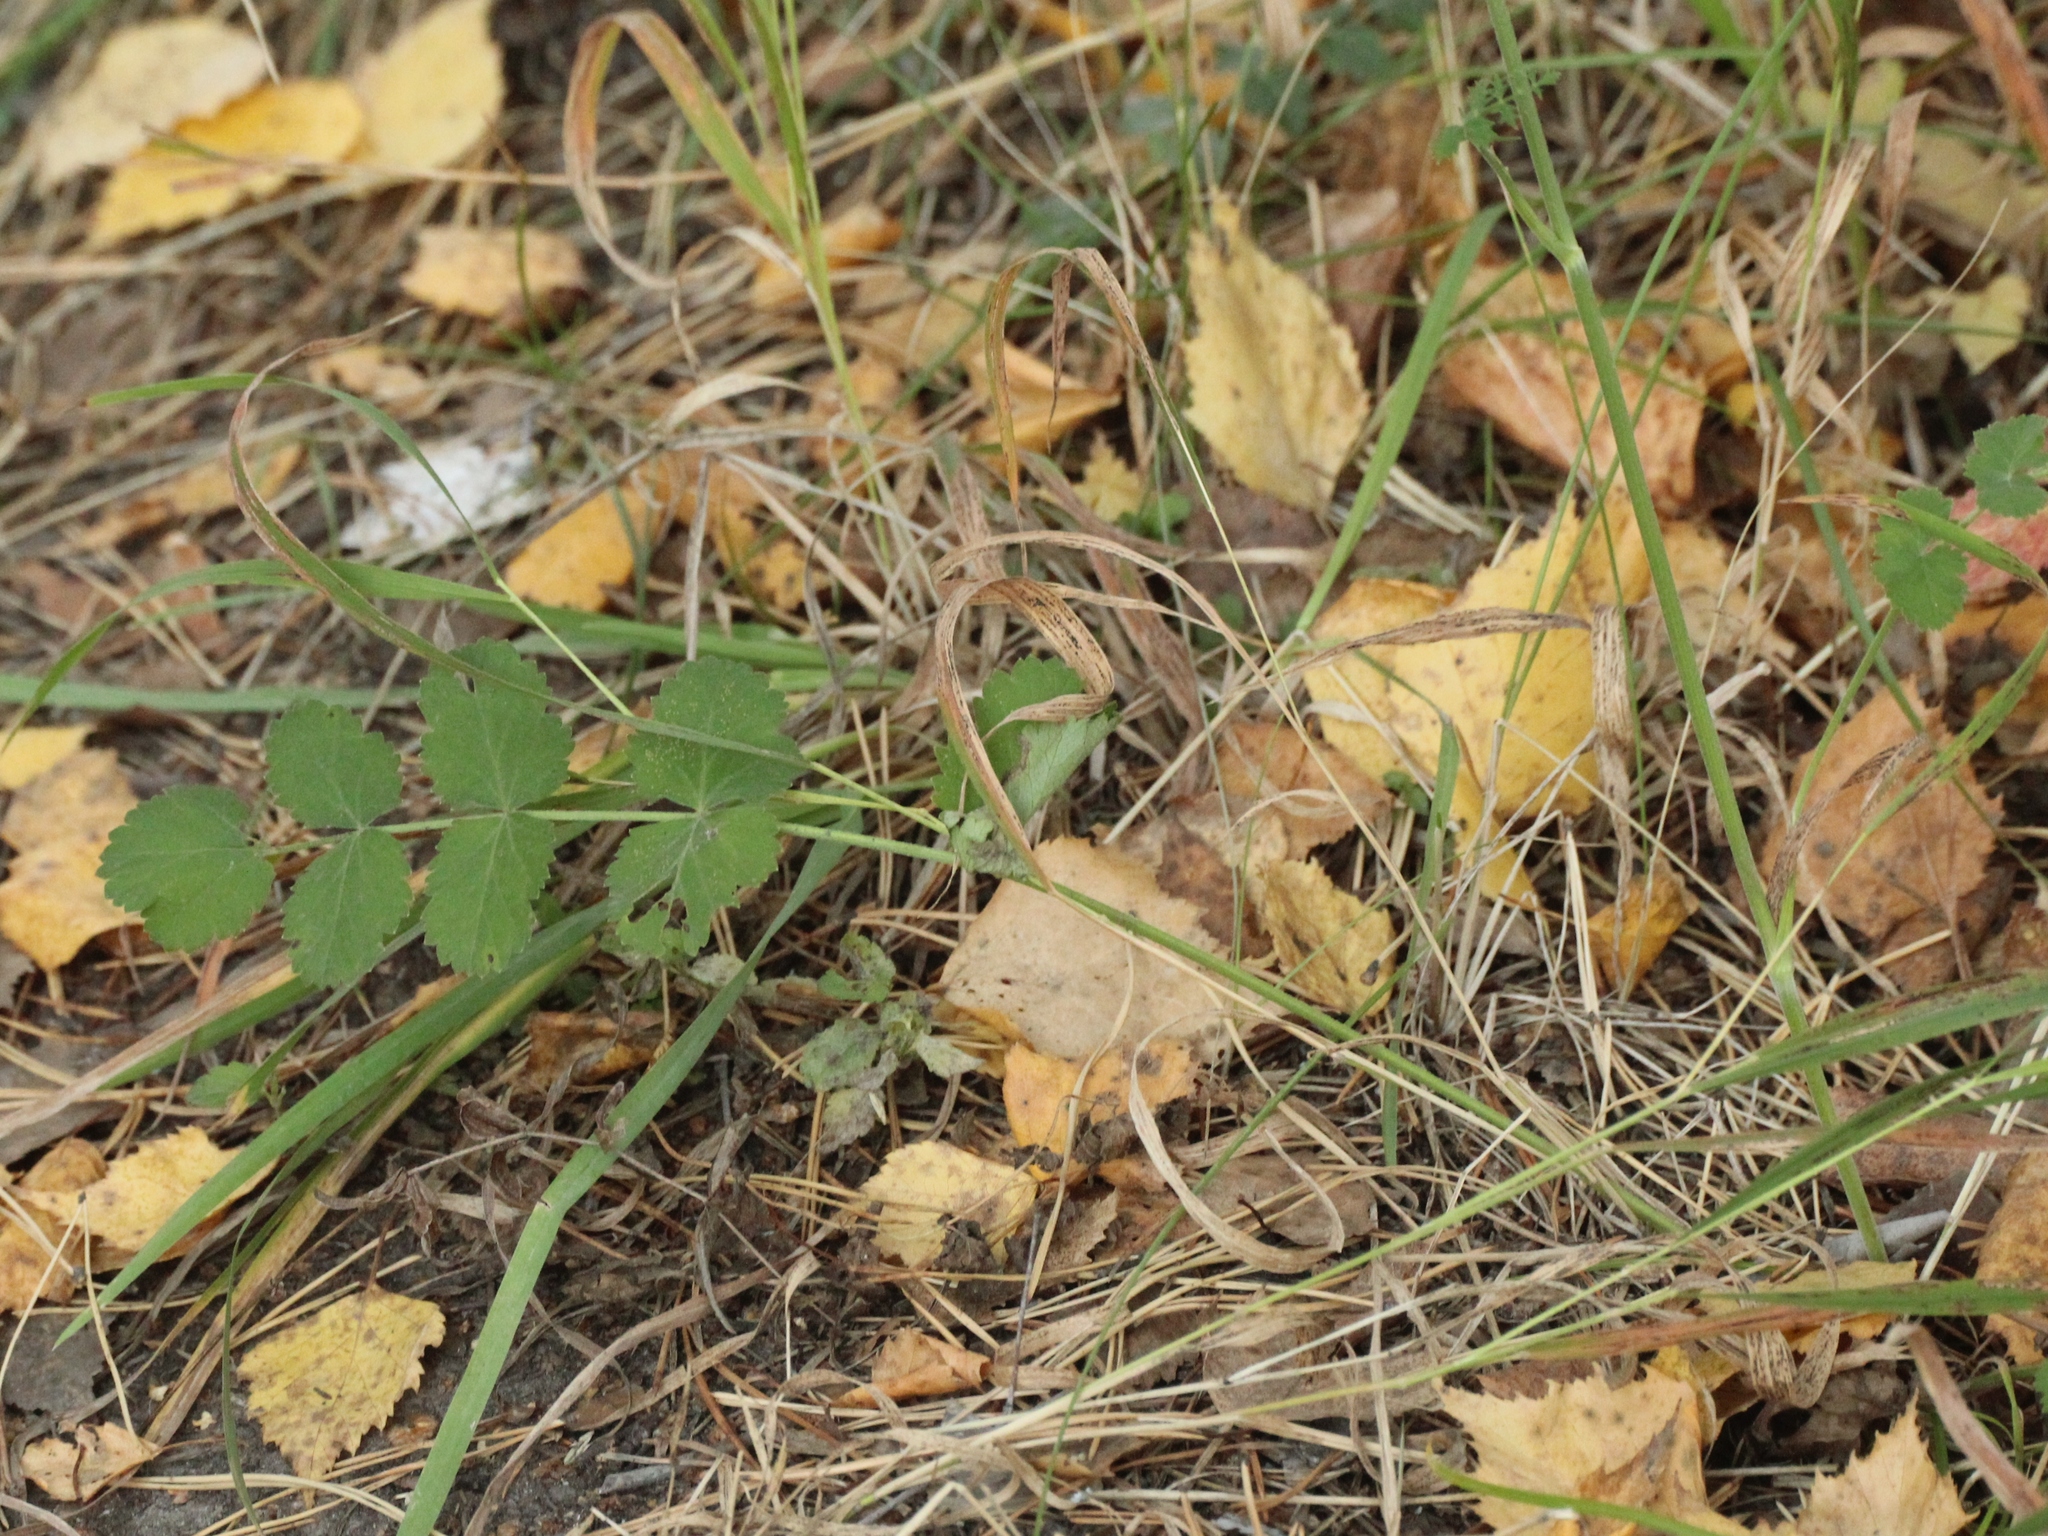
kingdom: Plantae
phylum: Tracheophyta
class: Magnoliopsida
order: Apiales
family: Apiaceae
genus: Pimpinella
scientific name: Pimpinella saxifraga
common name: Burnet-saxifrage
